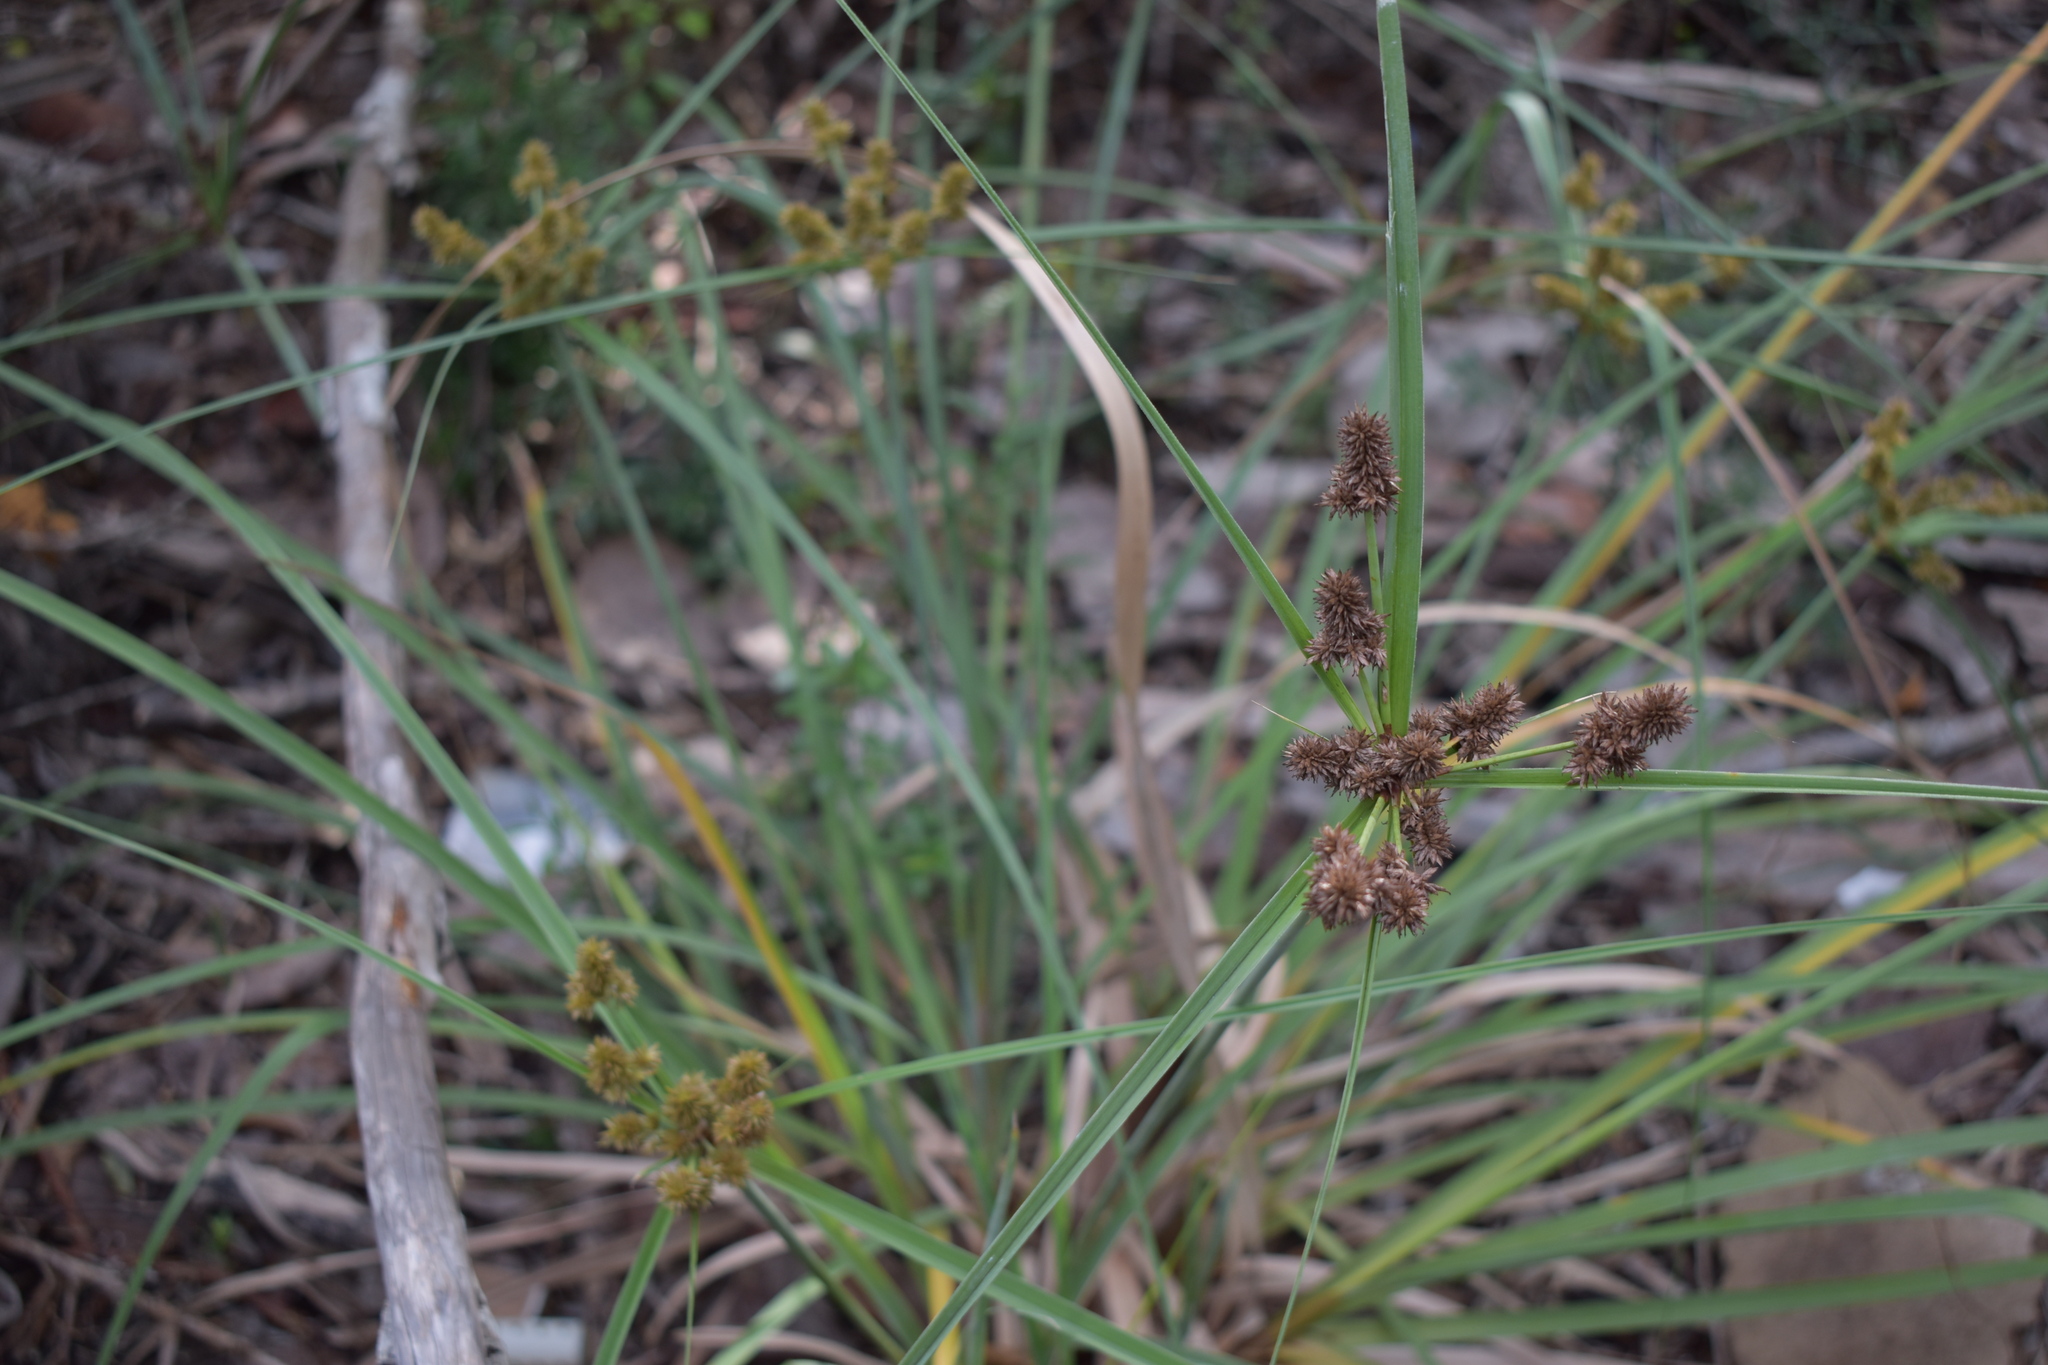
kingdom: Plantae
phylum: Tracheophyta
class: Liliopsida
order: Poales
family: Cyperaceae
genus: Cyperus
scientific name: Cyperus ligularis
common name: Swamp flat sedge
